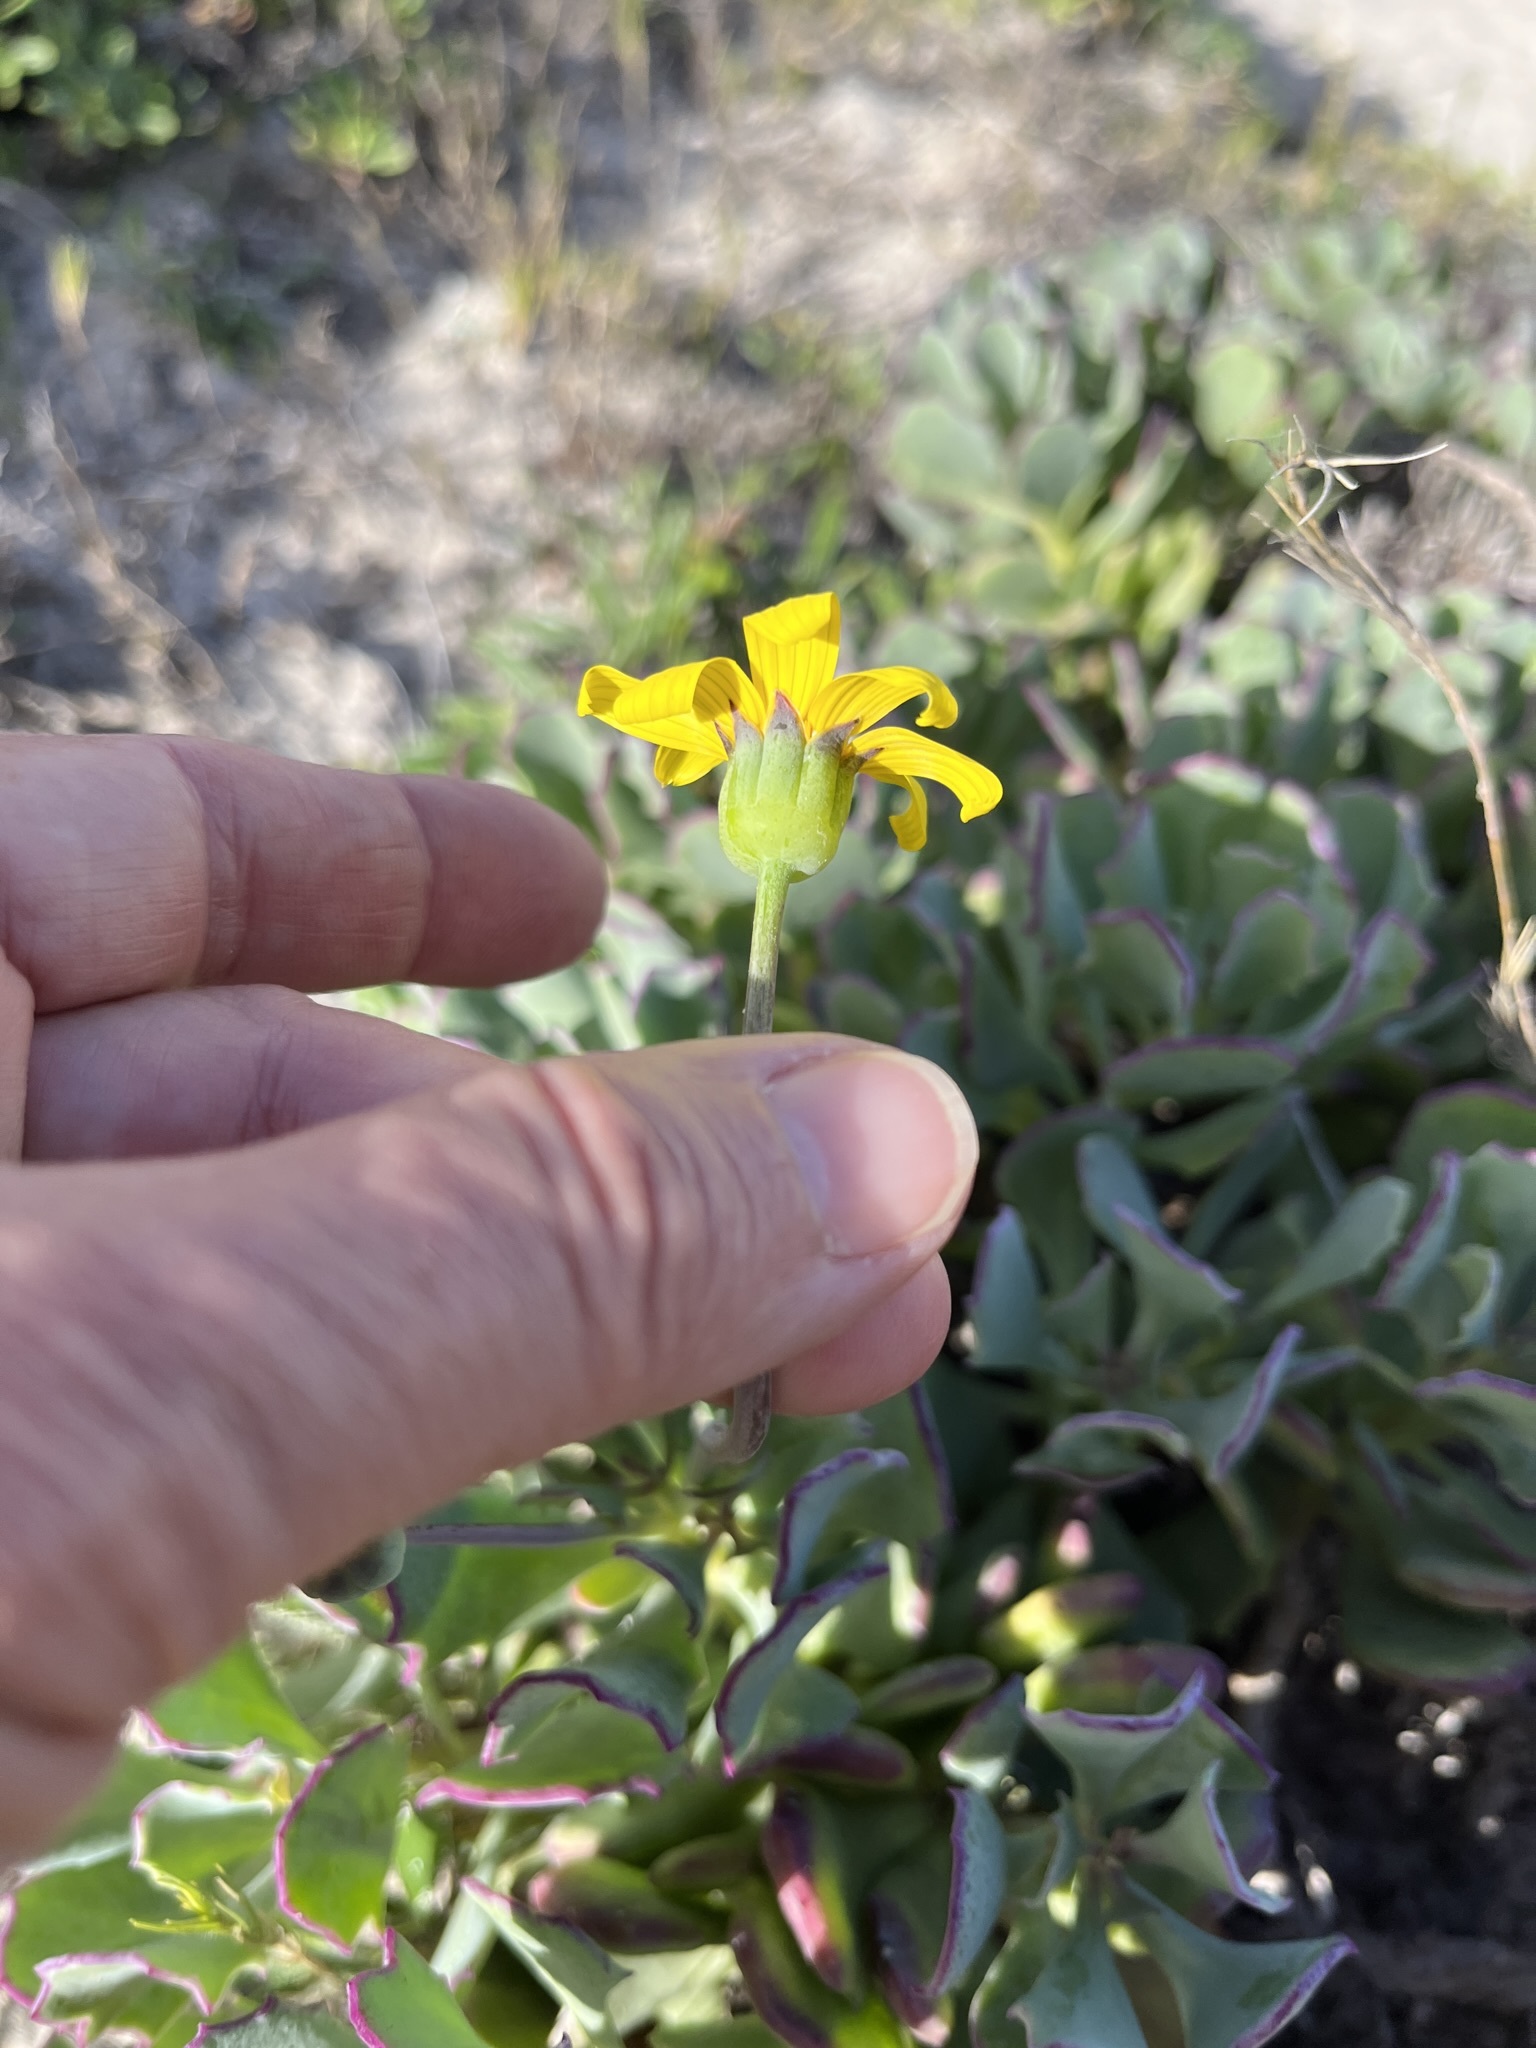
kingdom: Plantae
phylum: Tracheophyta
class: Magnoliopsida
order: Asterales
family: Asteraceae
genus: Othonna
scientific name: Othonna
